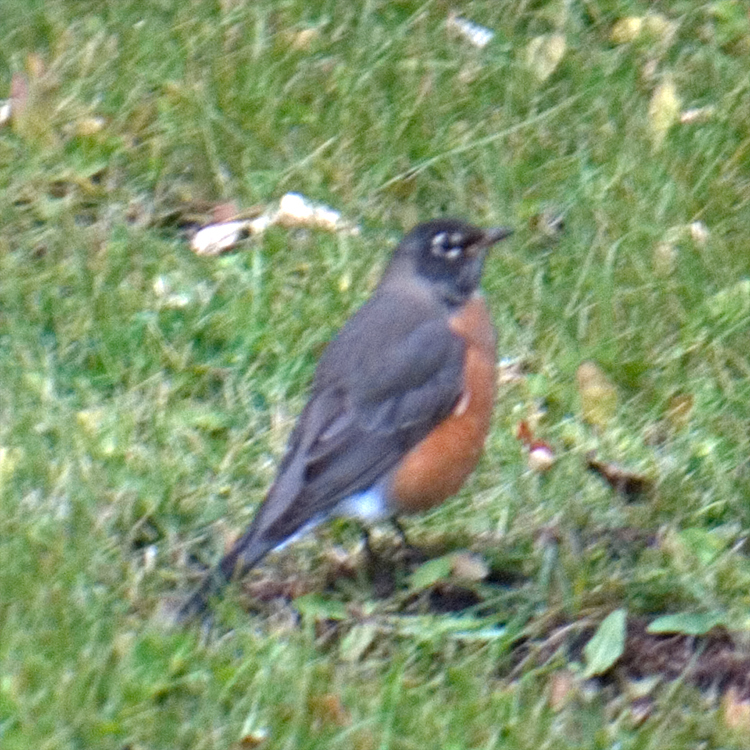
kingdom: Animalia
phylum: Chordata
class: Aves
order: Passeriformes
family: Turdidae
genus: Turdus
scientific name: Turdus migratorius
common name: American robin
